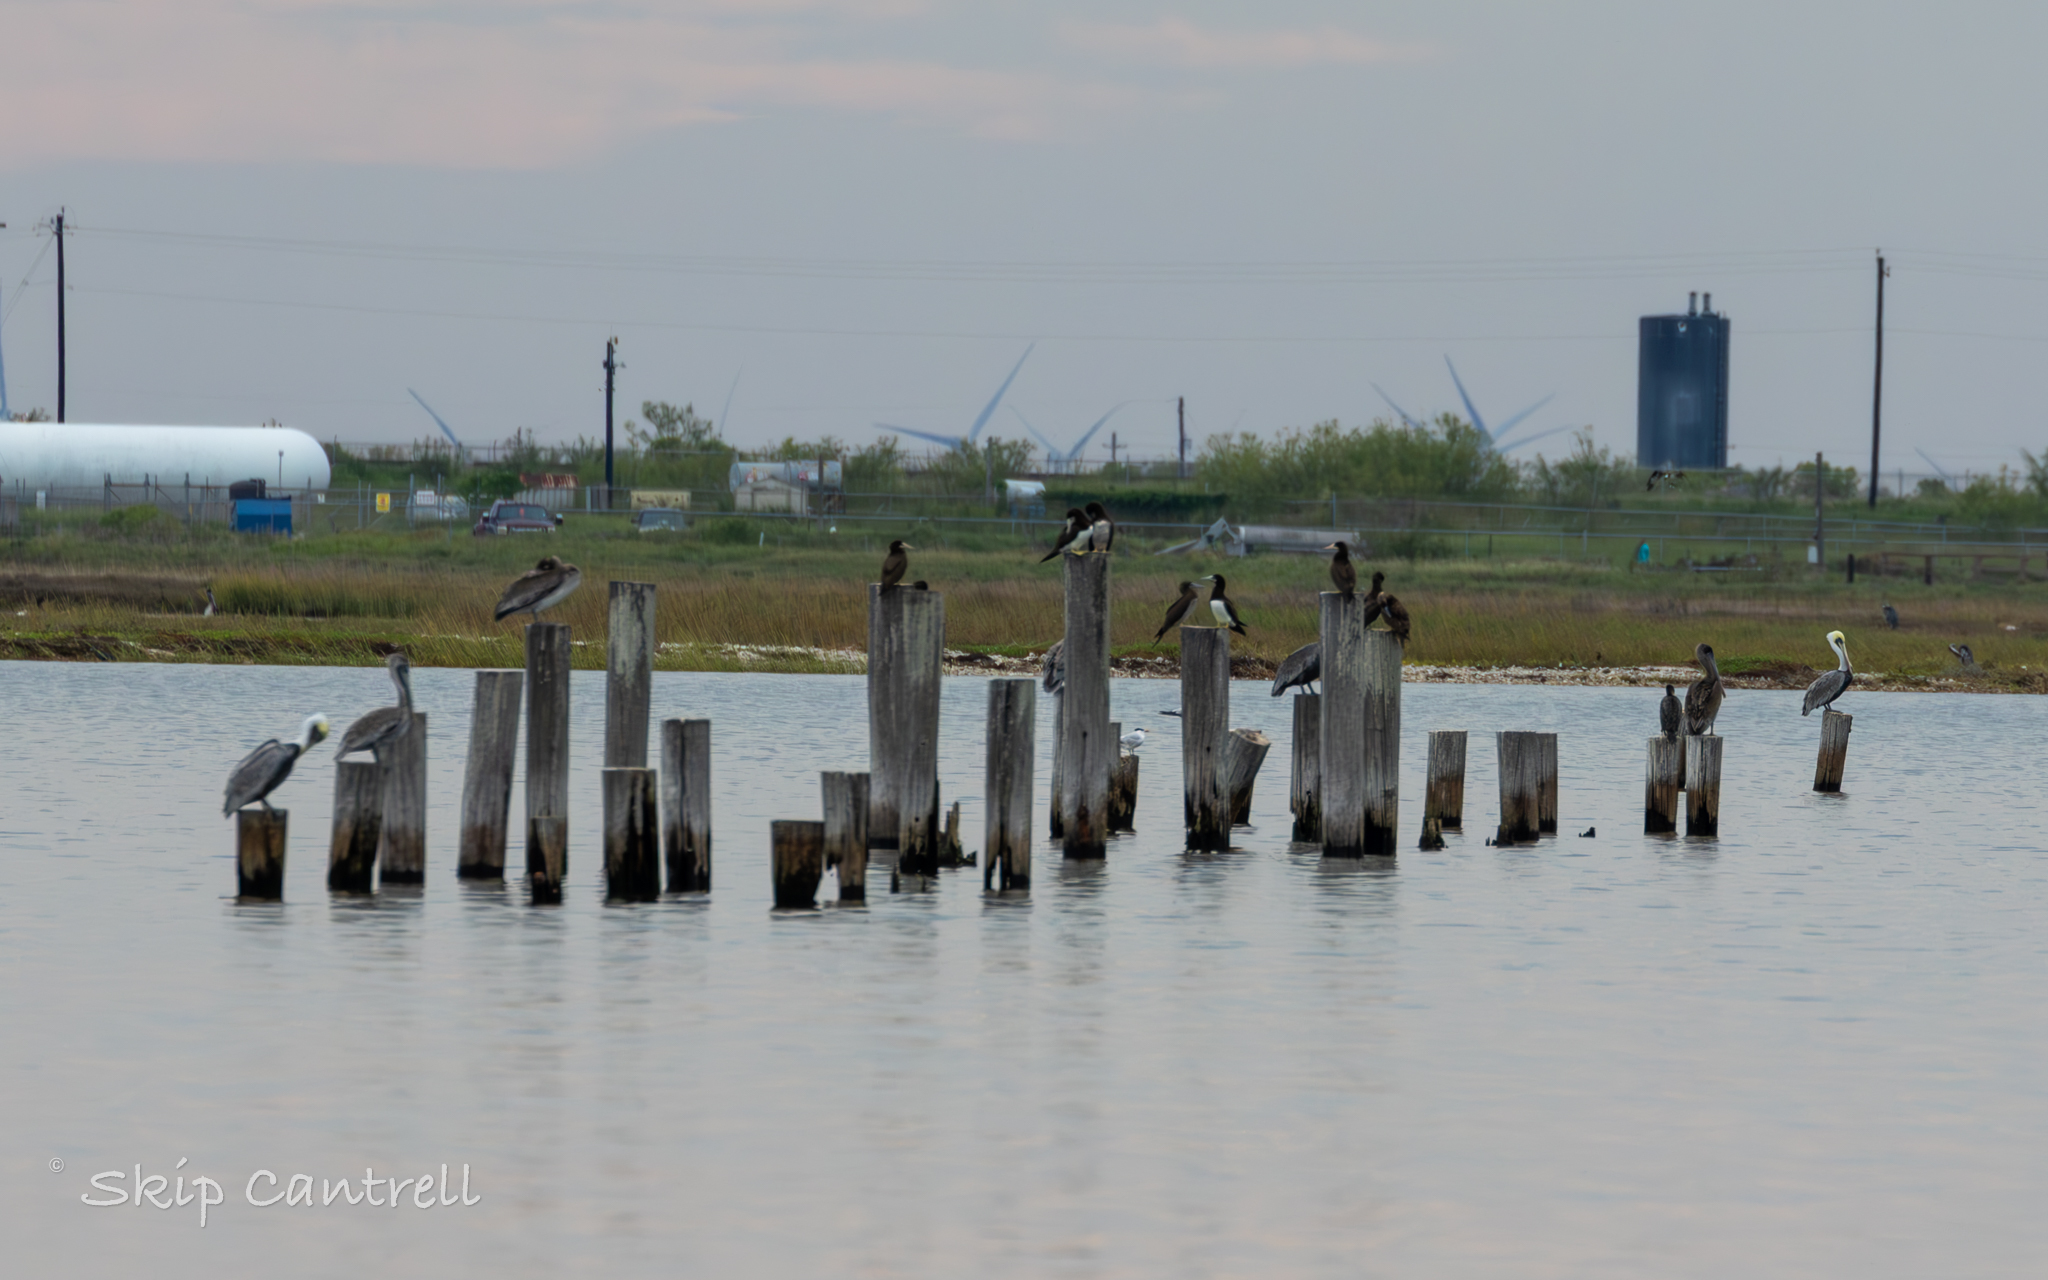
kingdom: Animalia
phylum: Chordata
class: Aves
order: Suliformes
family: Sulidae
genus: Sula
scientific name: Sula leucogaster
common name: Brown booby
